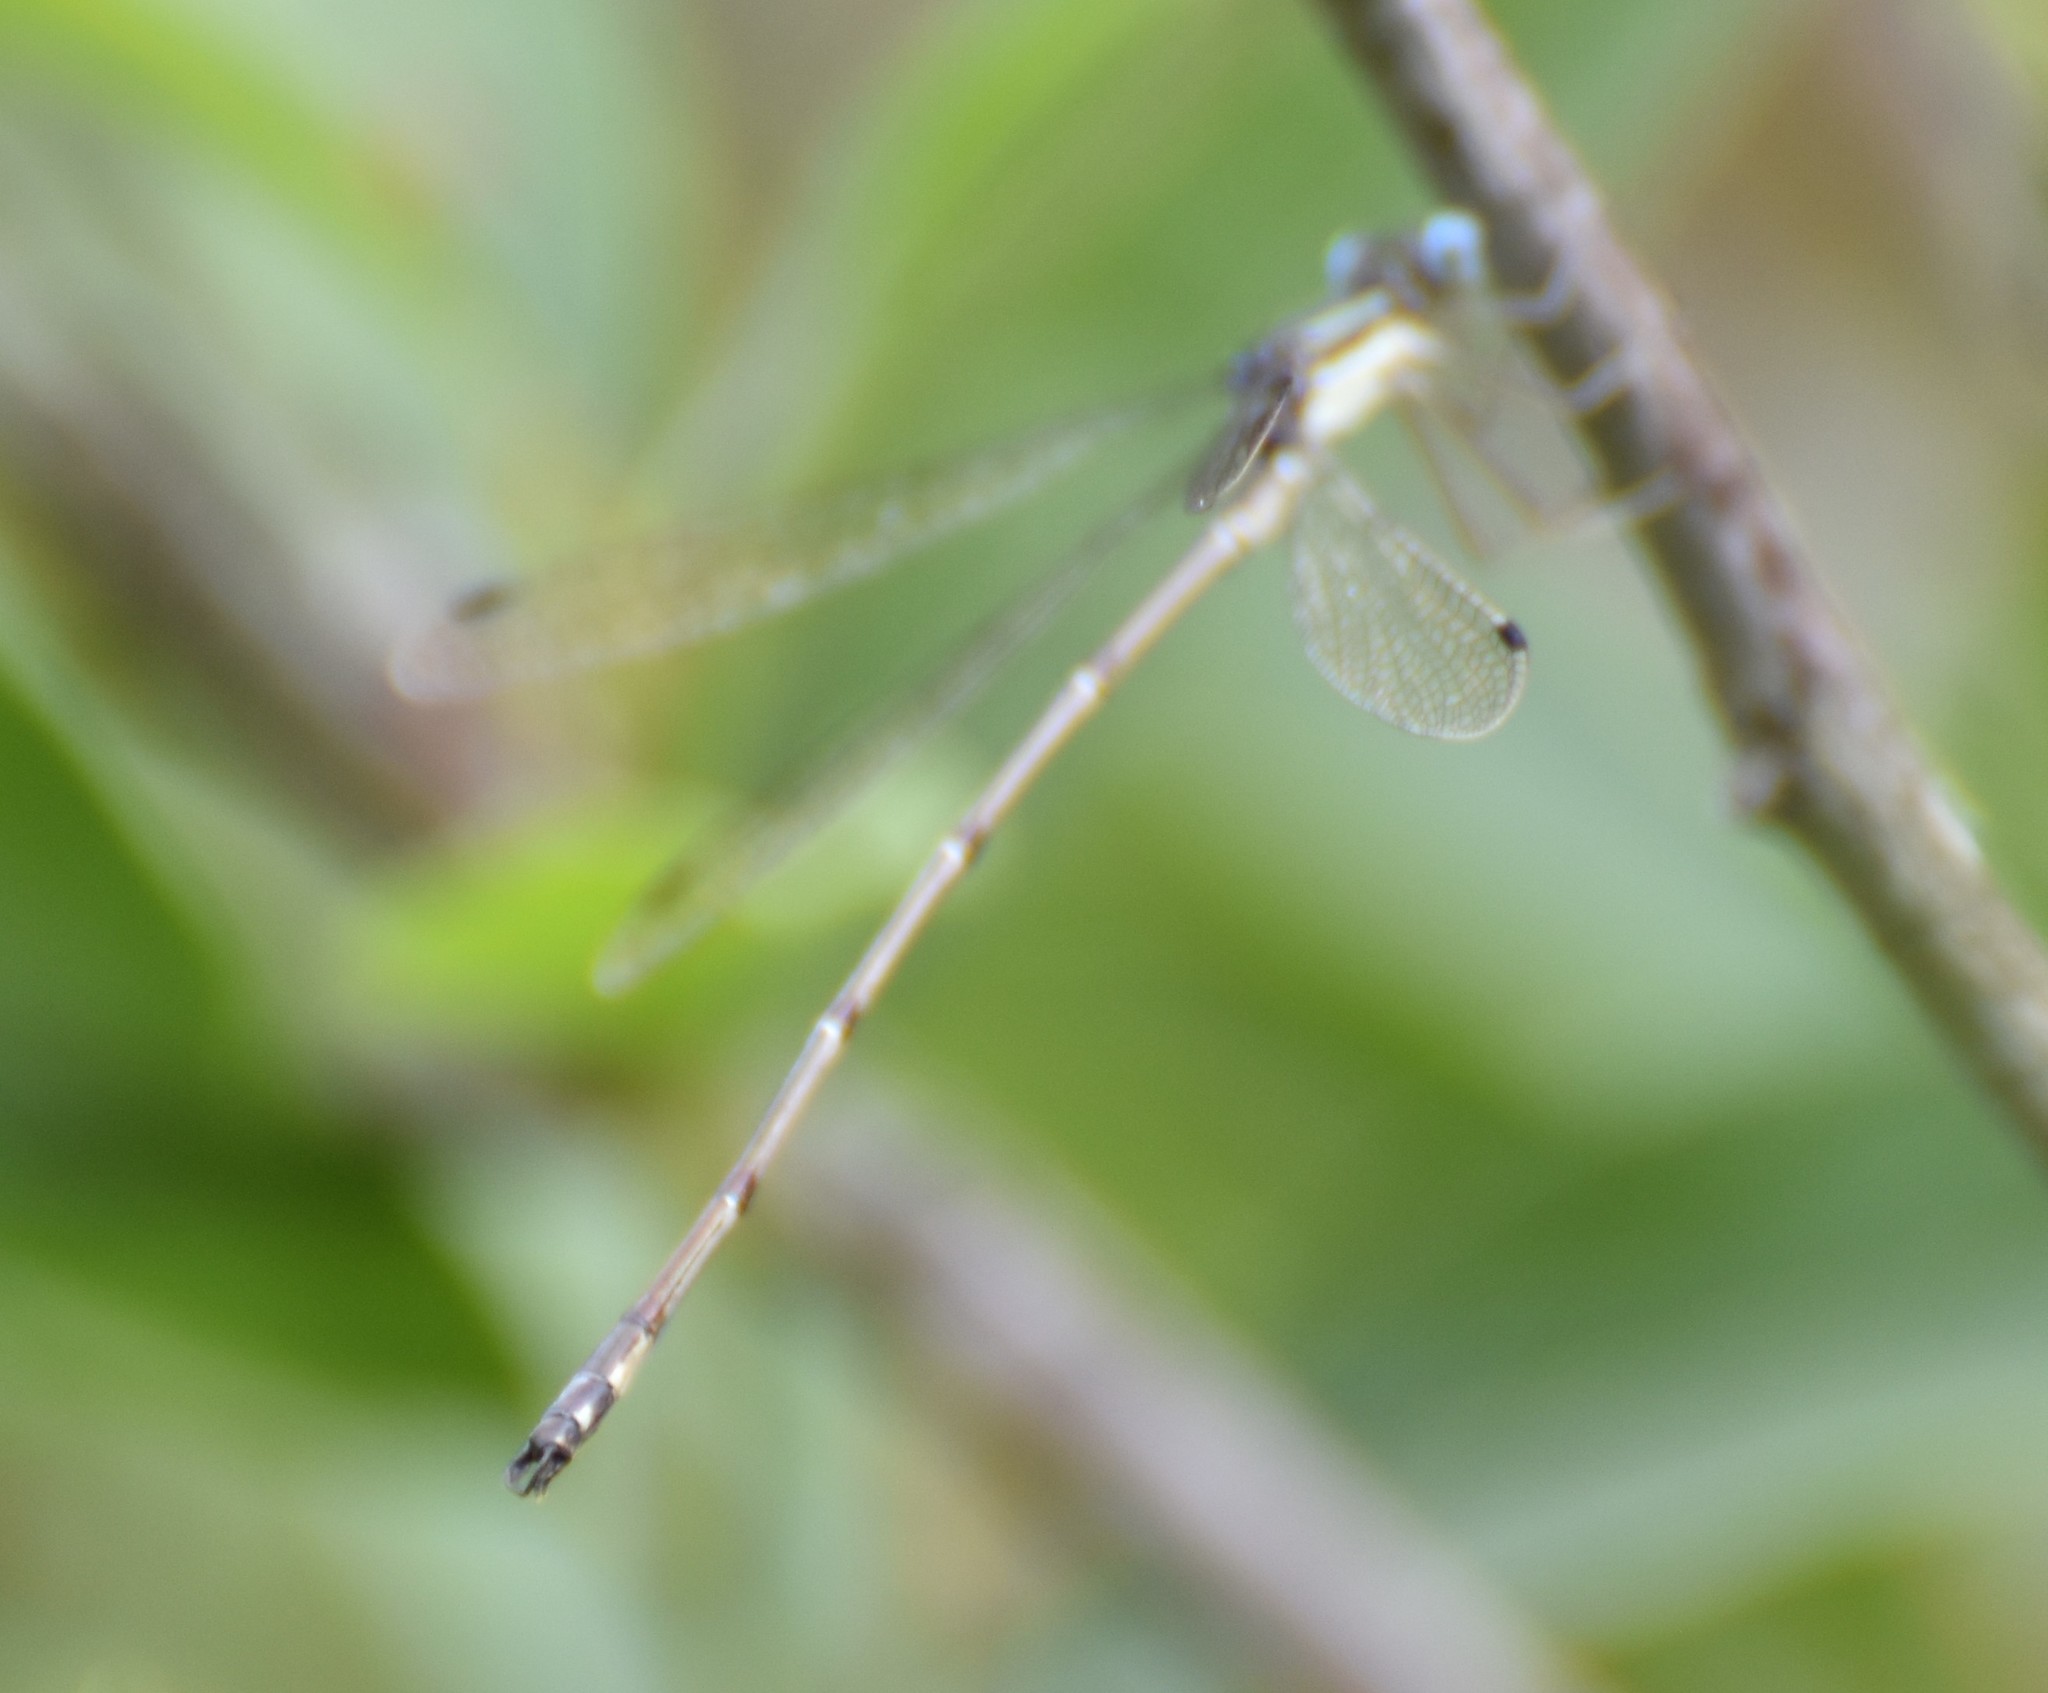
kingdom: Animalia
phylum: Arthropoda
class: Insecta
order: Odonata
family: Lestidae
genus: Lestes
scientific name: Lestes rectangularis
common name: Slender spreadwing
